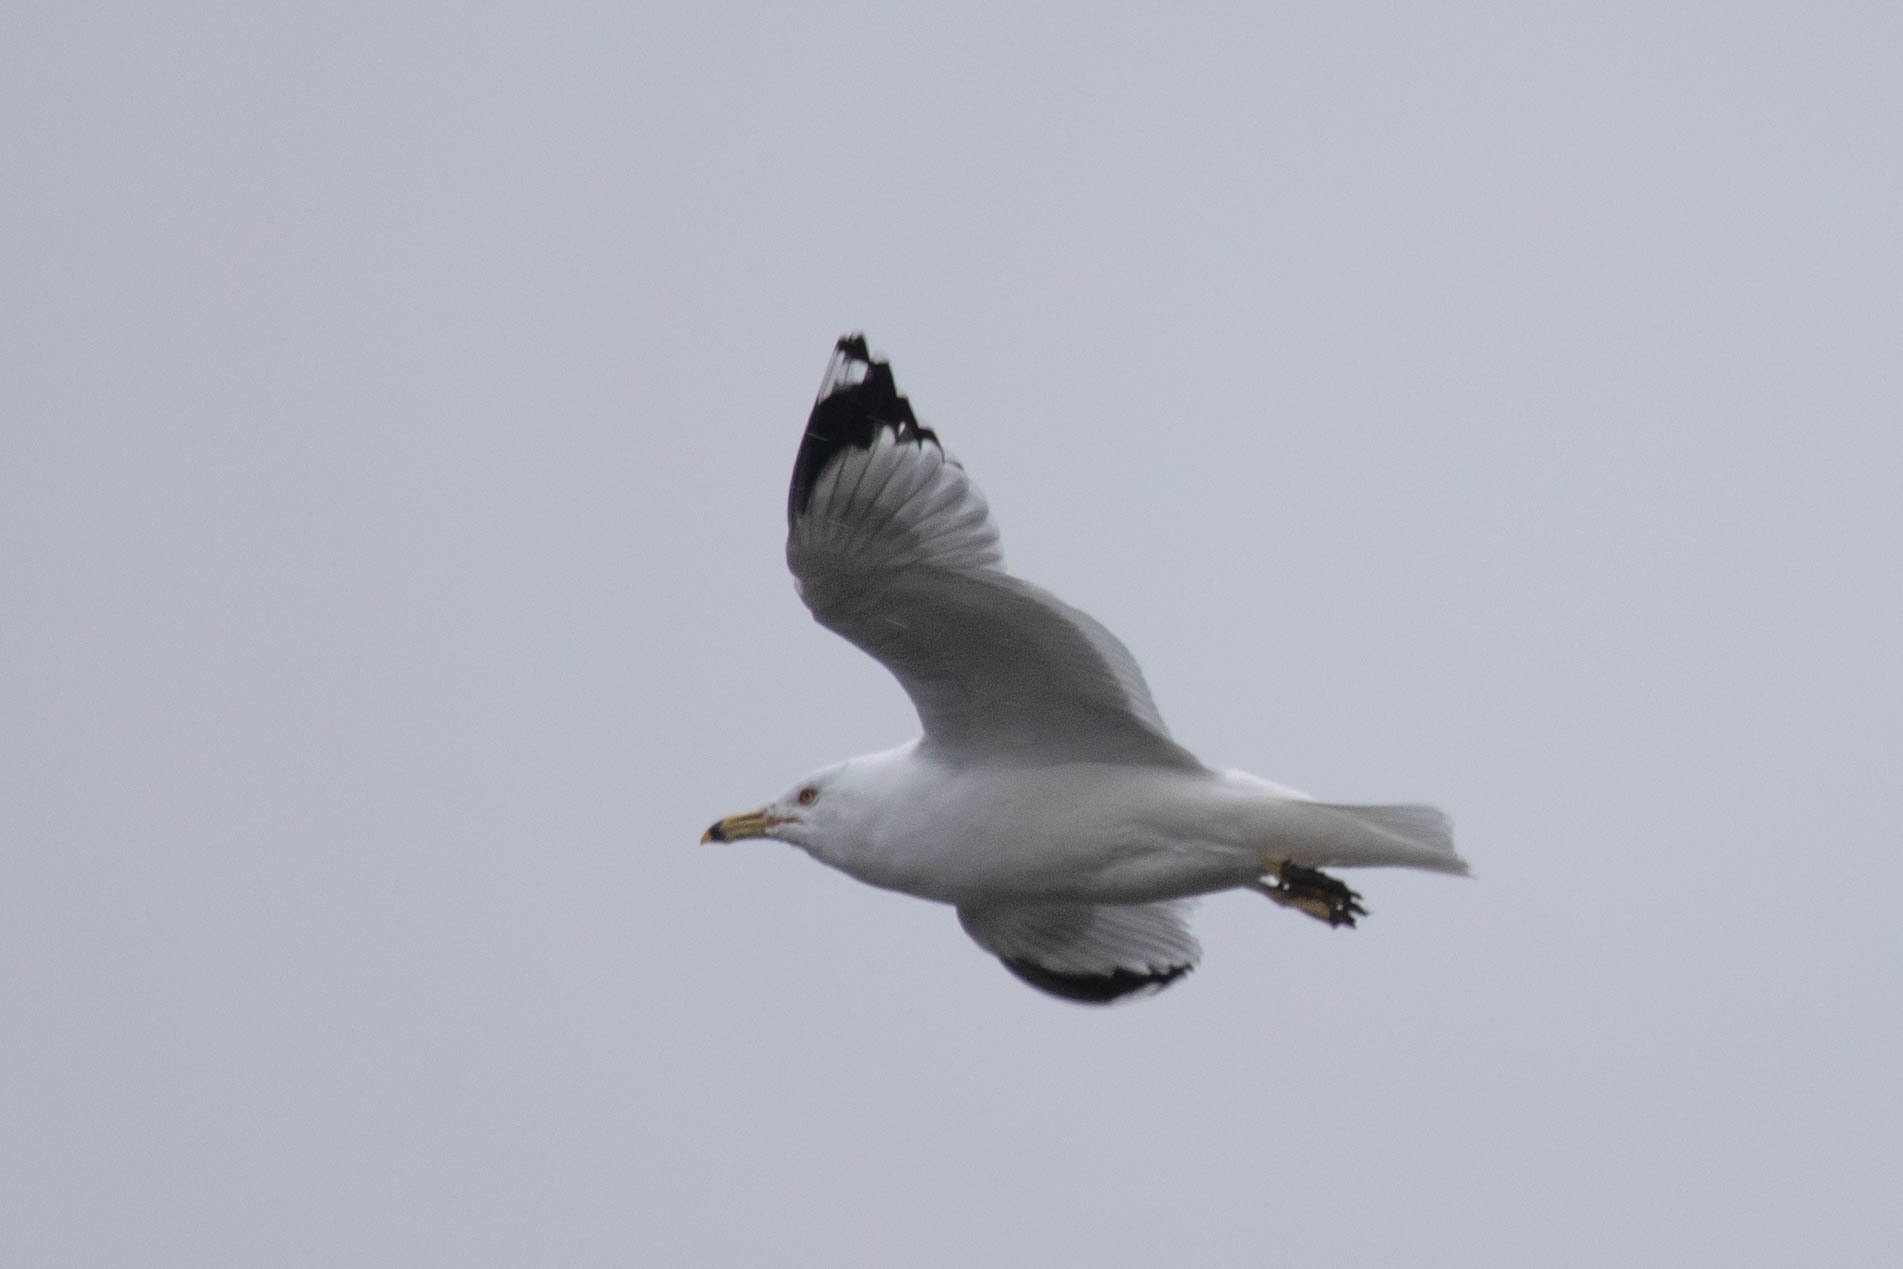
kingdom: Animalia
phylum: Chordata
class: Aves
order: Charadriiformes
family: Laridae
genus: Larus
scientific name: Larus delawarensis
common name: Ring-billed gull
